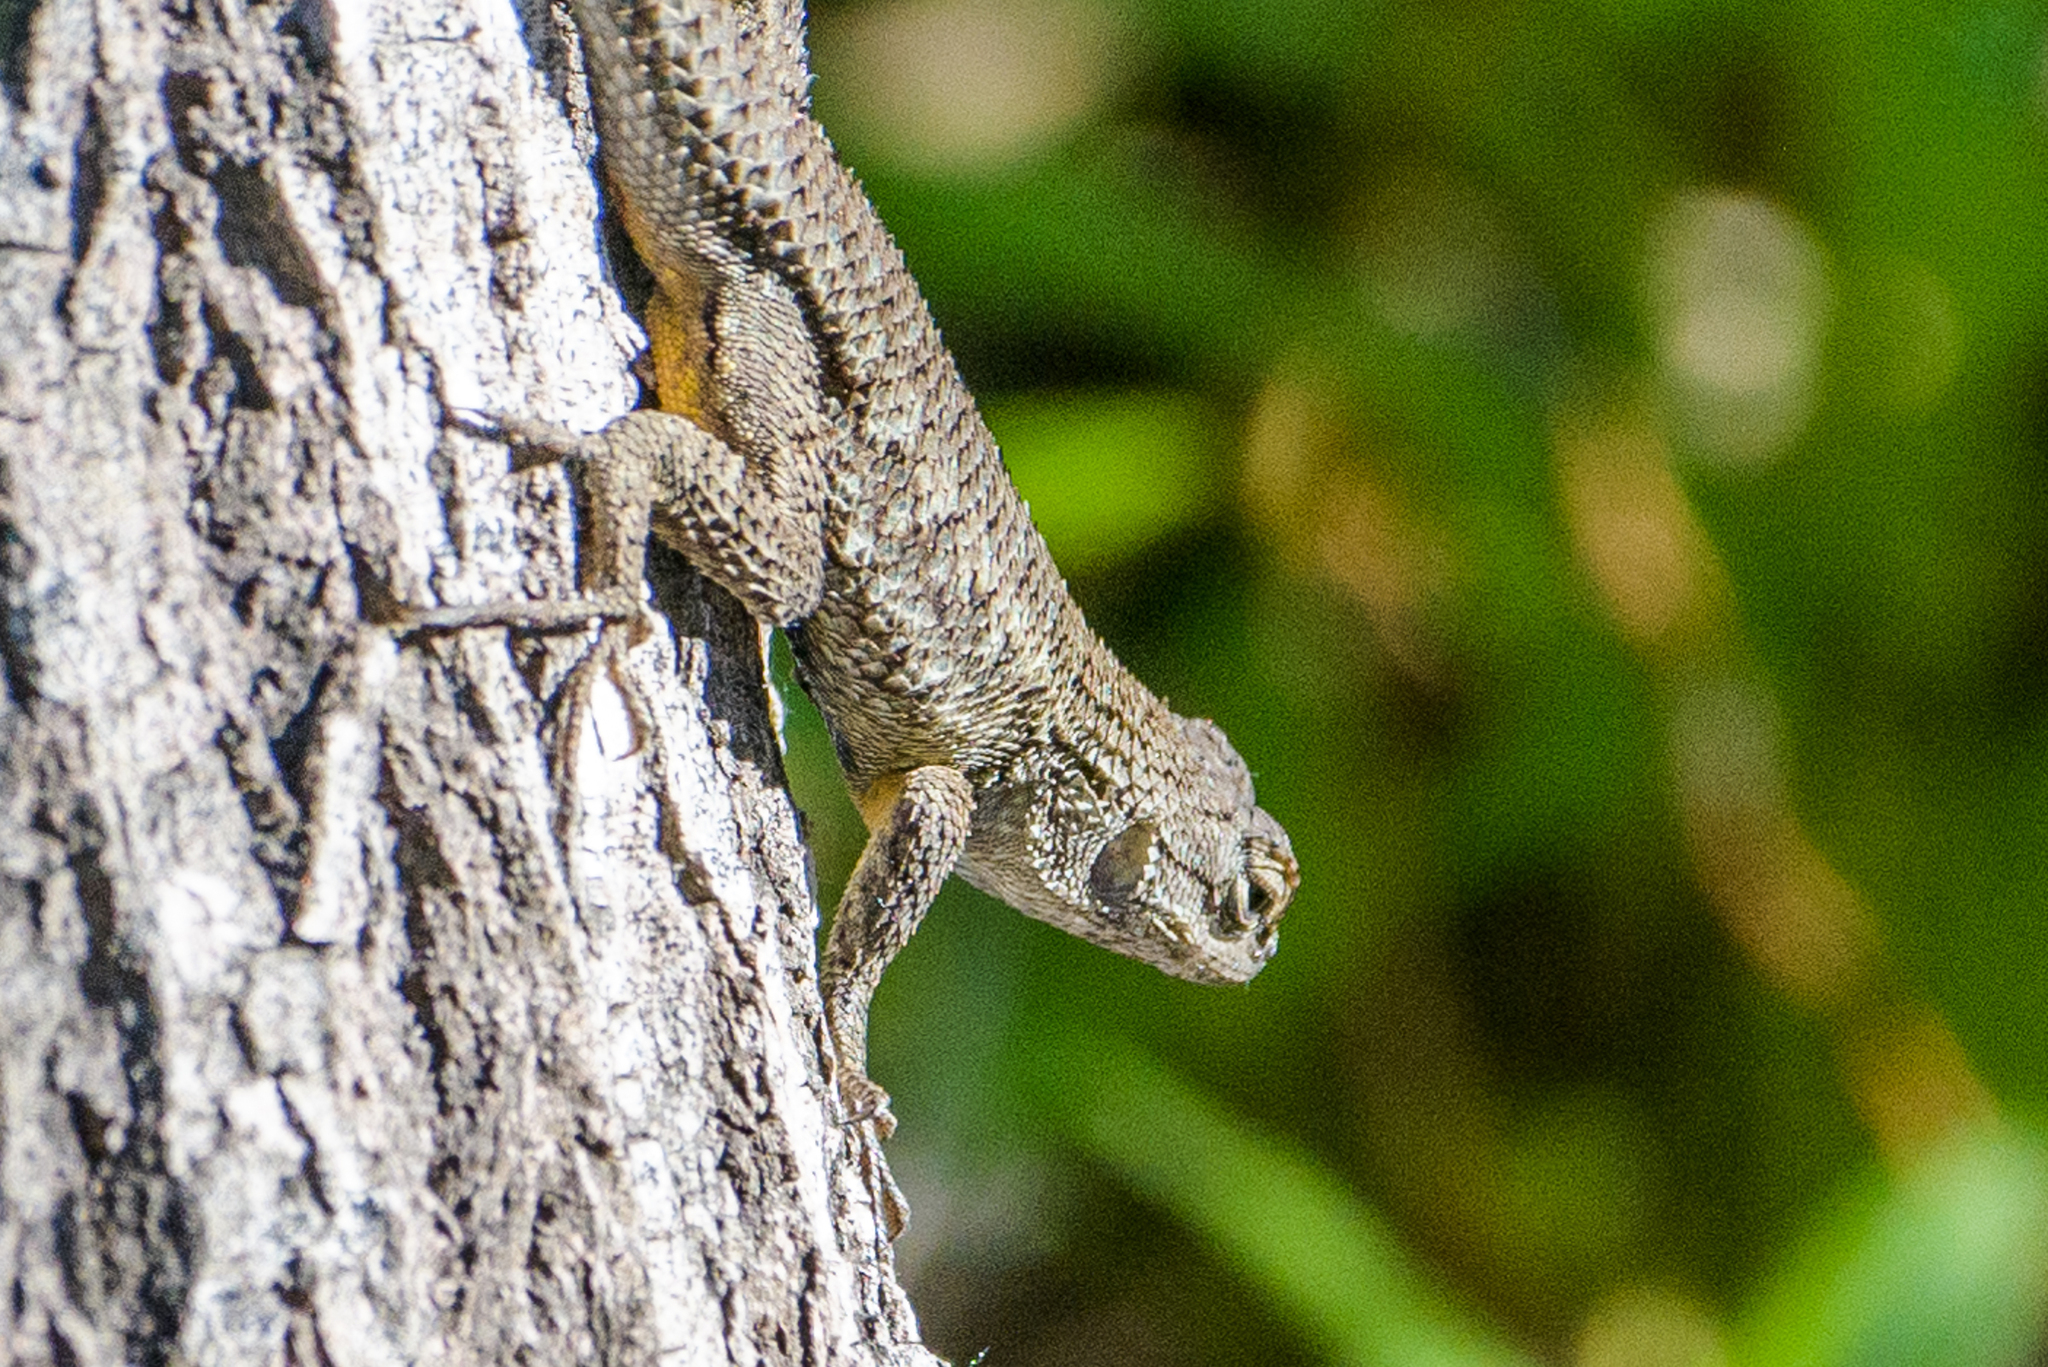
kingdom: Animalia
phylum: Chordata
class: Squamata
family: Phrynosomatidae
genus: Sceloporus
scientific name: Sceloporus occidentalis
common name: Western fence lizard
